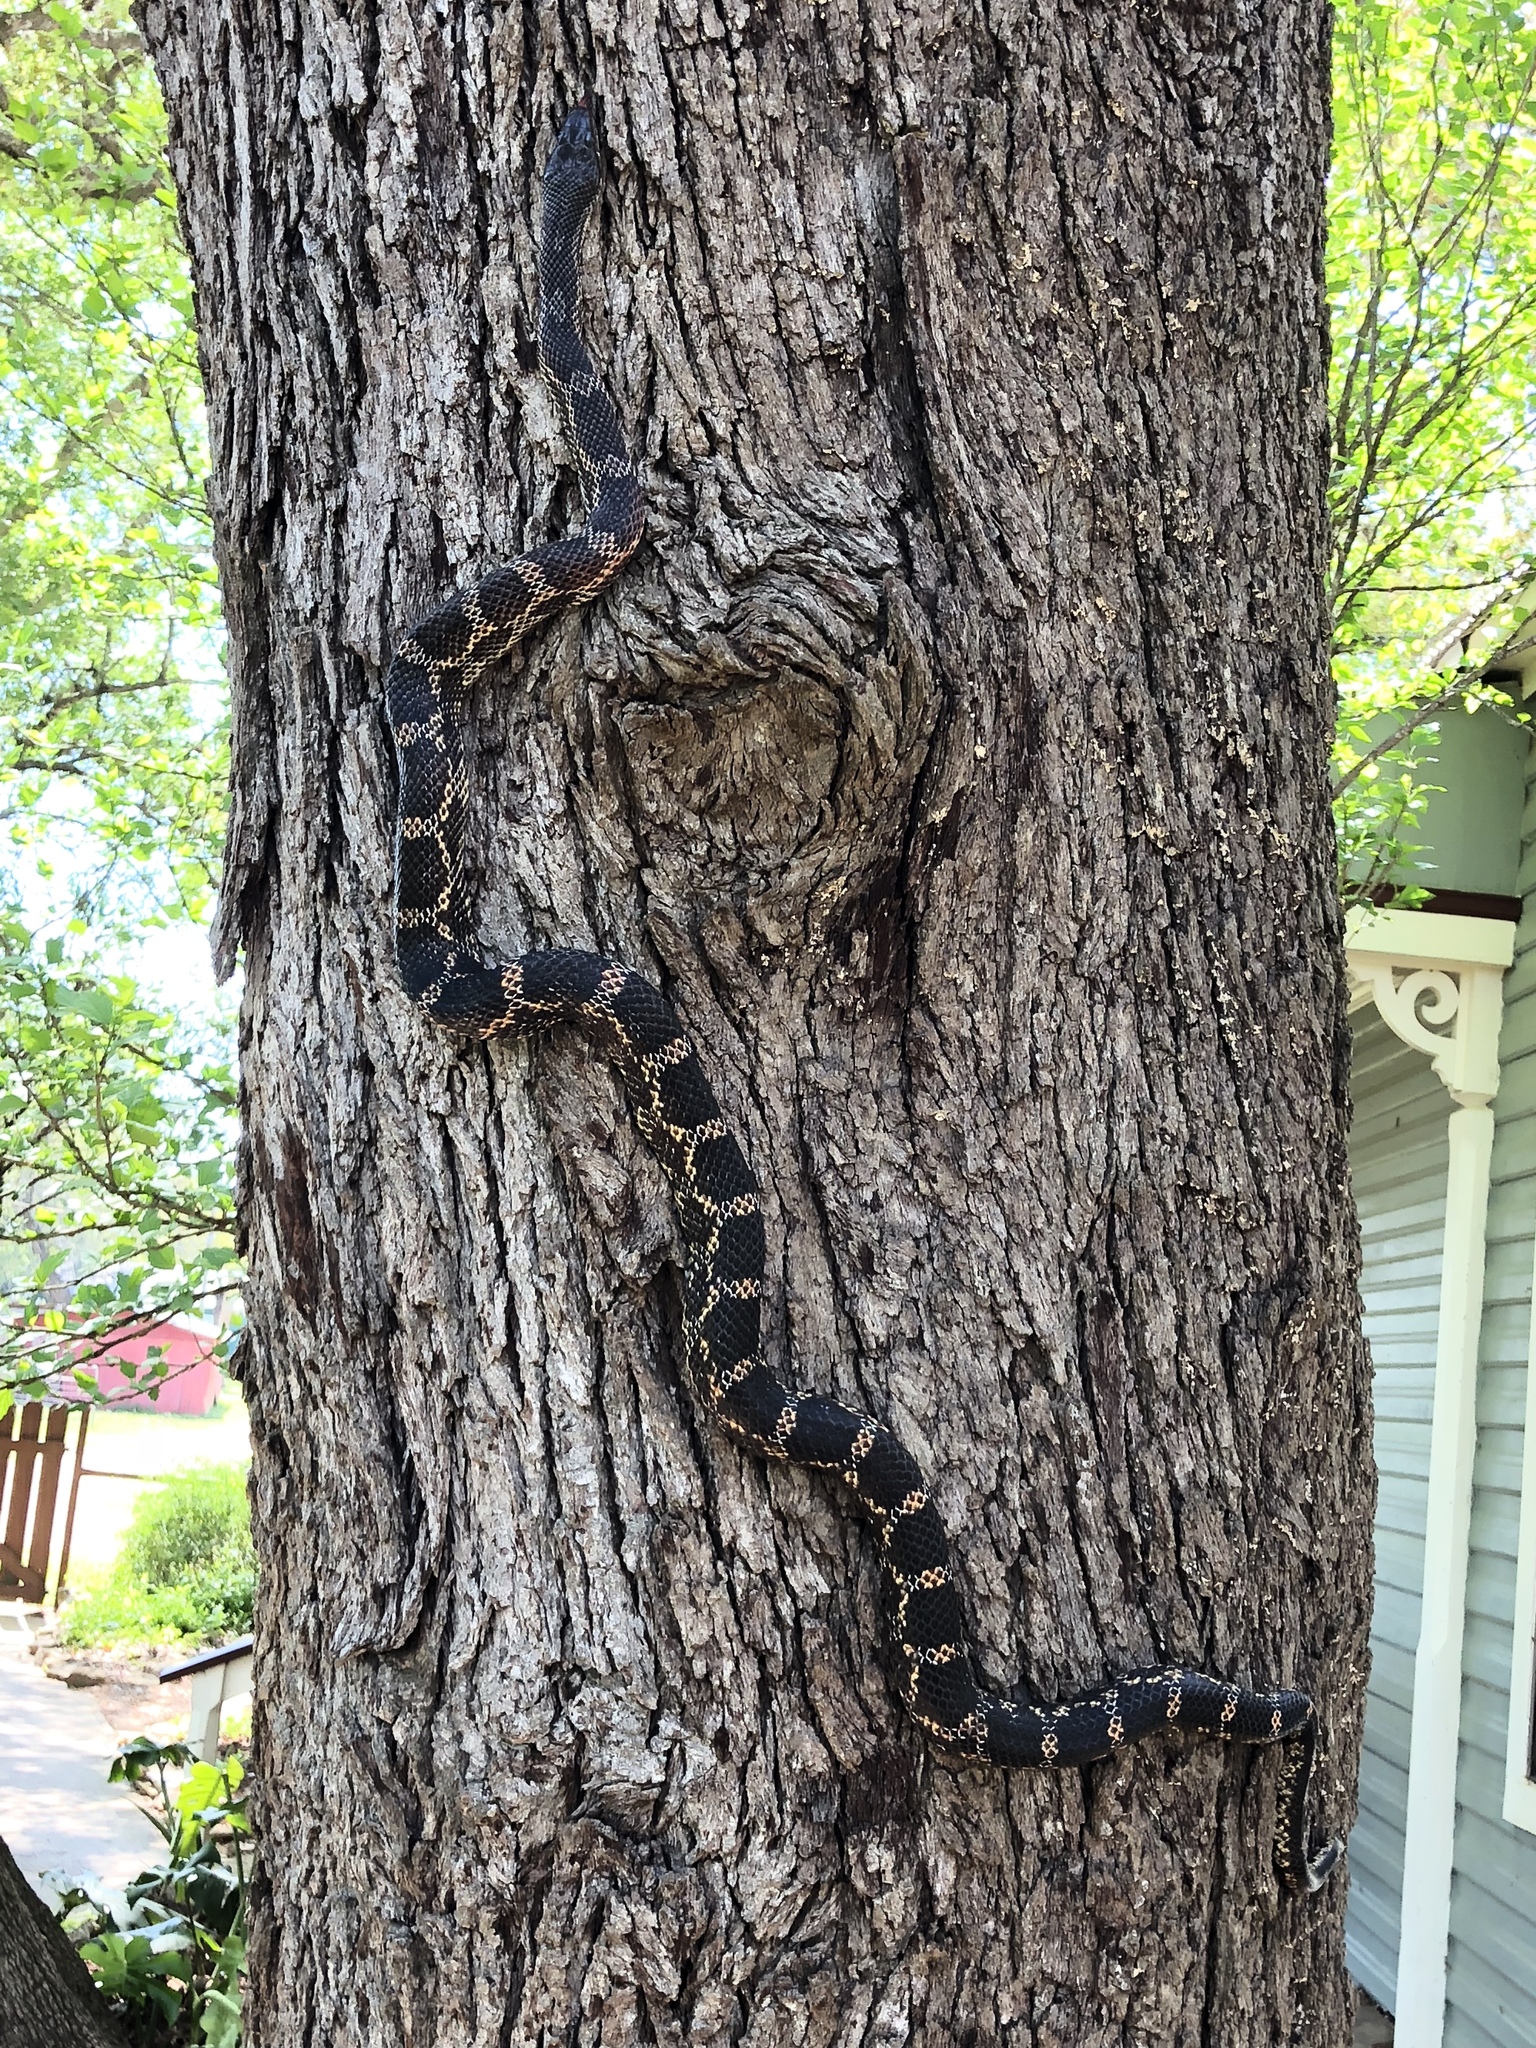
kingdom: Animalia
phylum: Chordata
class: Squamata
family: Colubridae
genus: Pantherophis
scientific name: Pantherophis obsoletus
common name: Black rat snake
